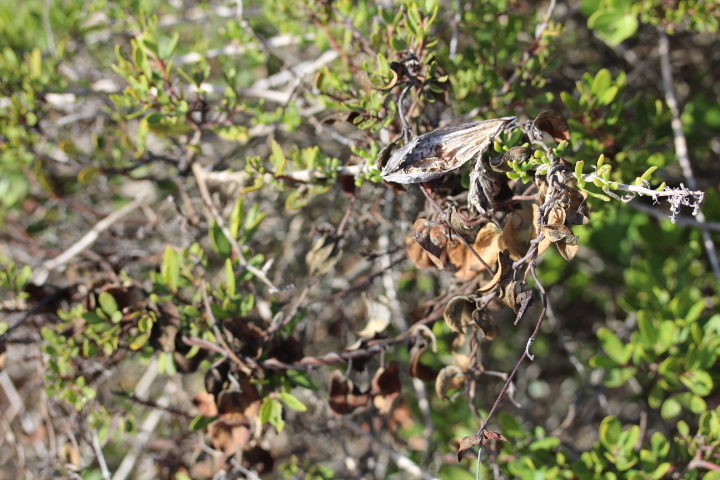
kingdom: Plantae
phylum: Tracheophyta
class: Magnoliopsida
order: Gentianales
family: Apocynaceae
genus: Cynanchum
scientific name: Cynanchum africanum
